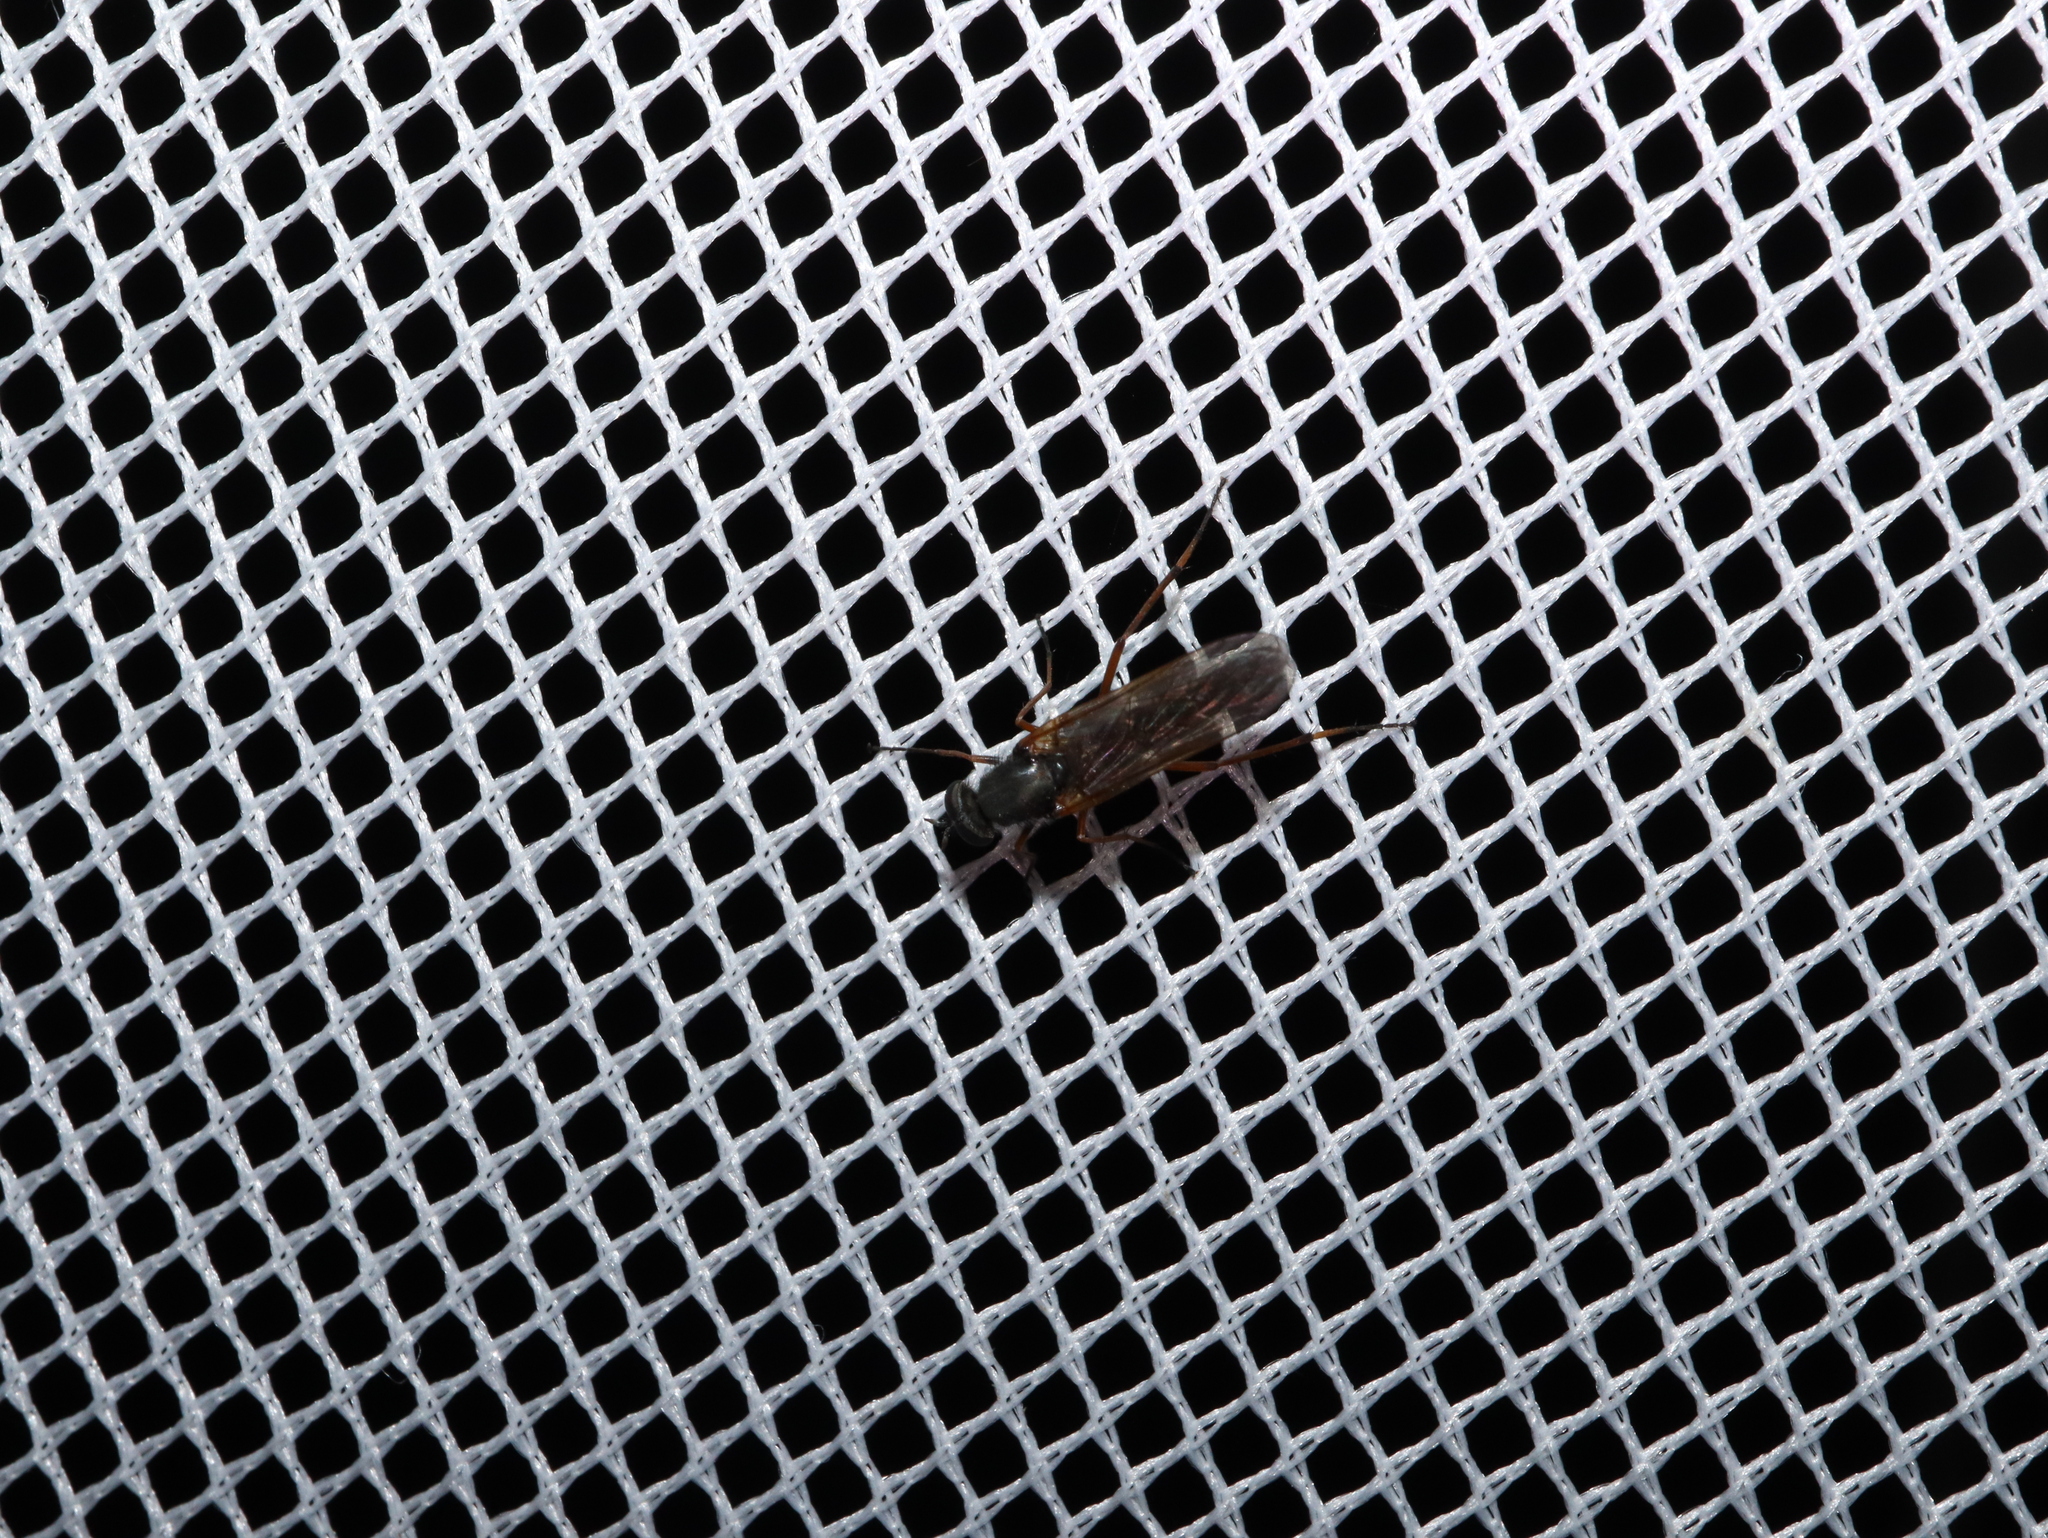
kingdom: Animalia
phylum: Arthropoda
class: Insecta
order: Diptera
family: Therevidae
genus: Taenogerella
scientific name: Taenogerella platina
